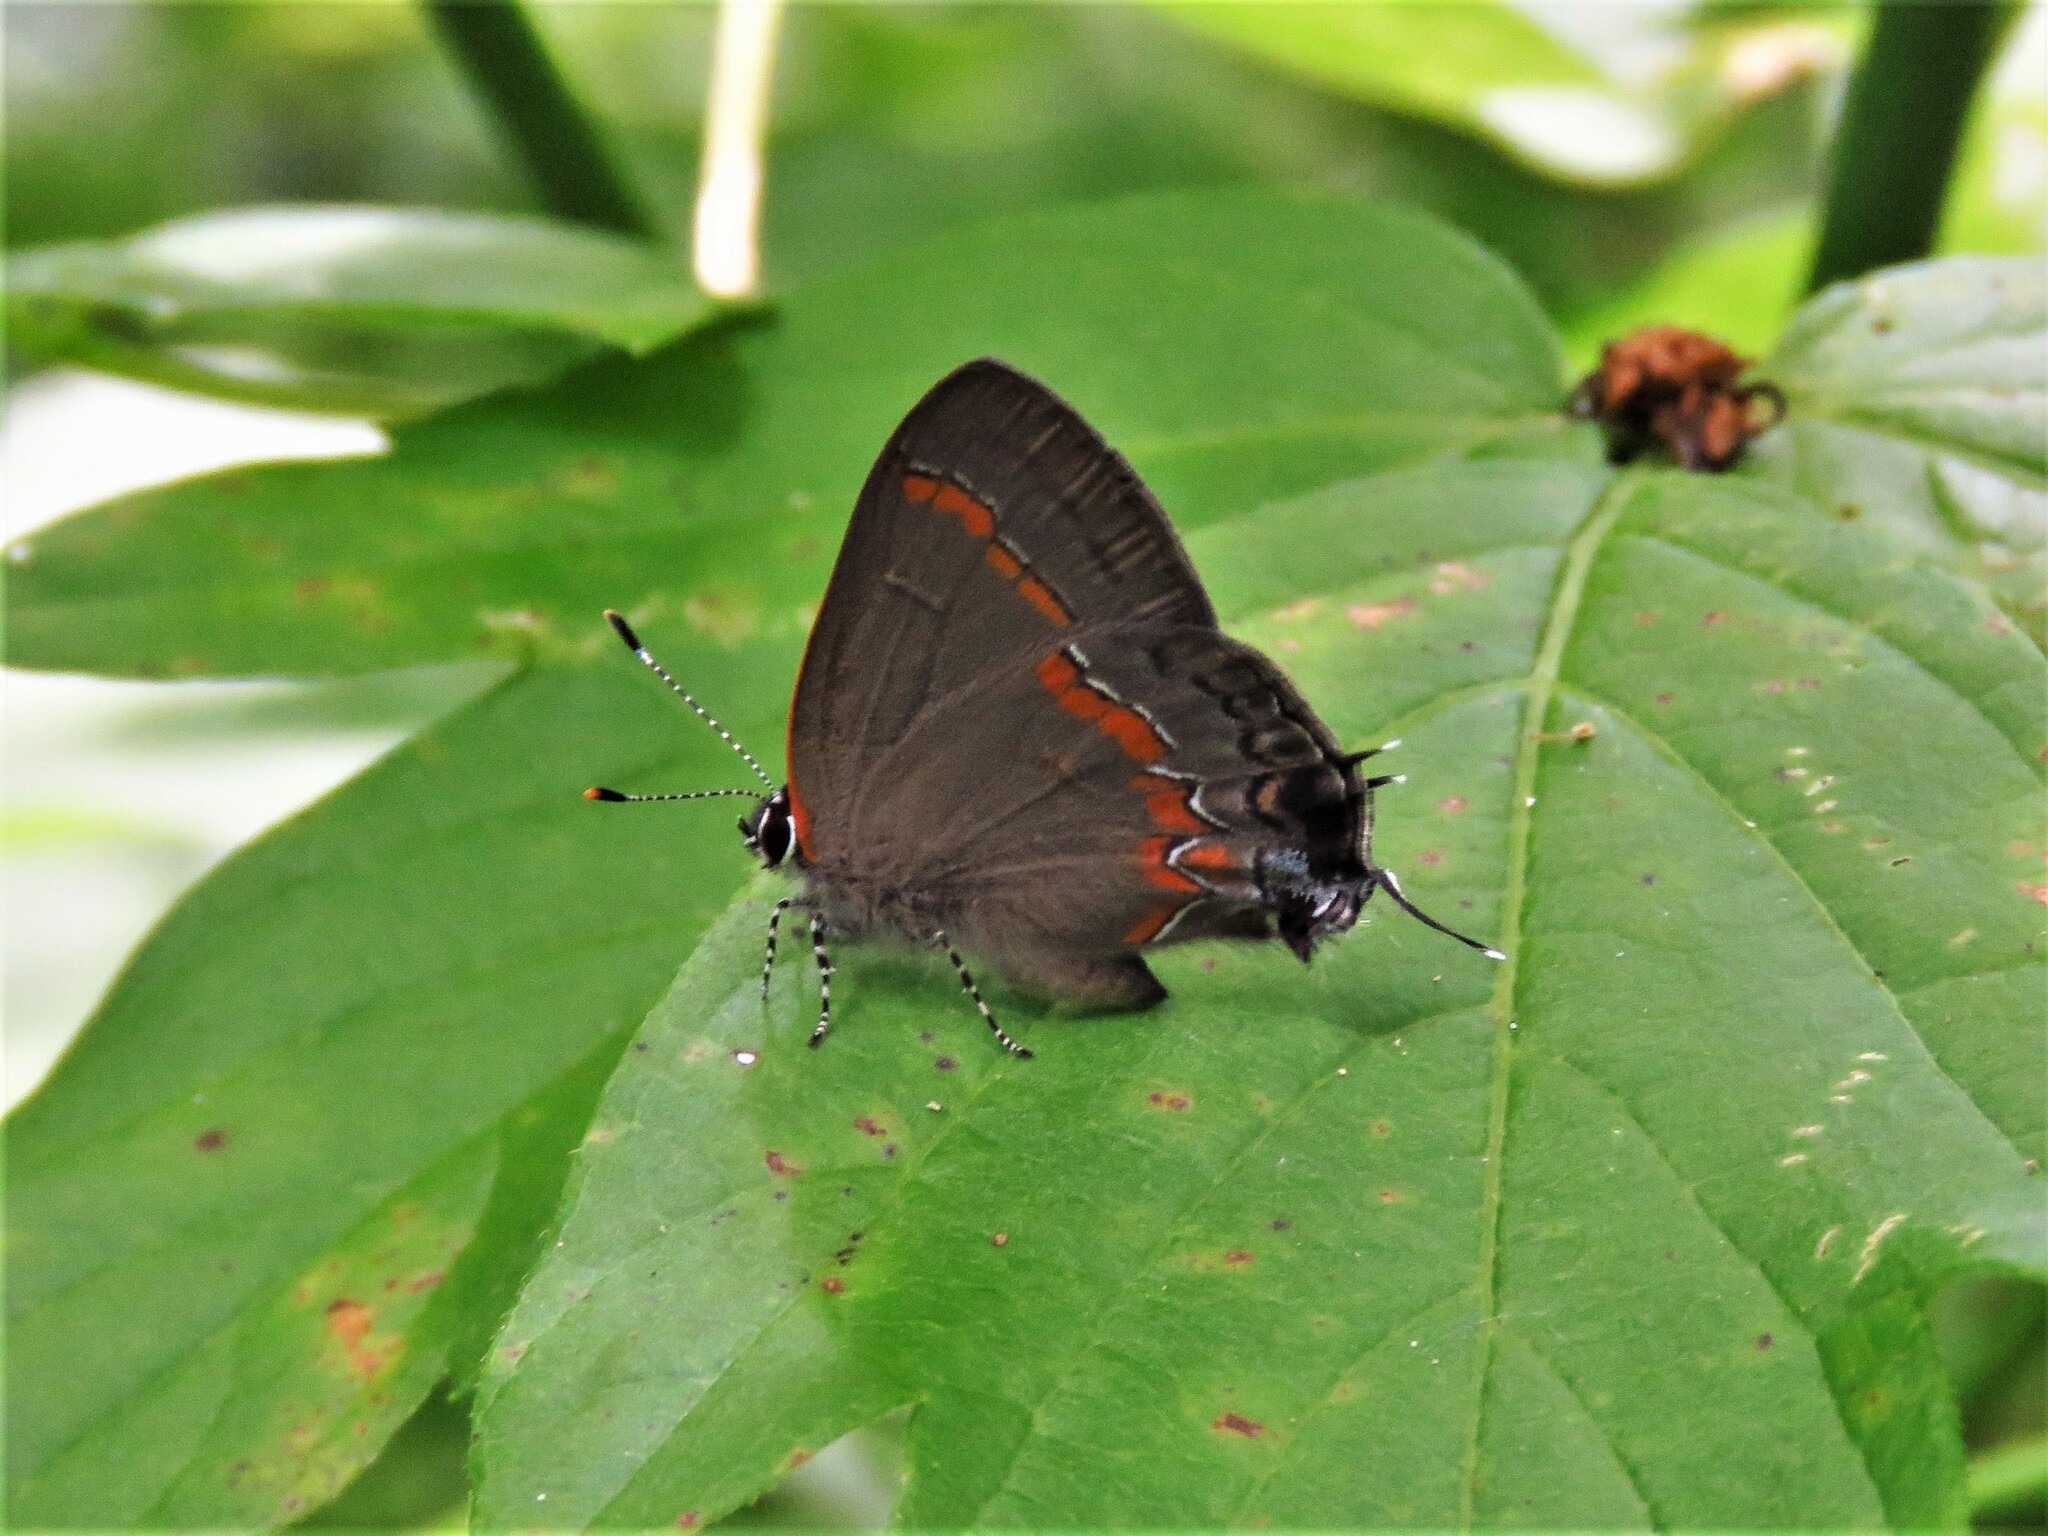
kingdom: Animalia
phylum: Arthropoda
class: Insecta
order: Lepidoptera
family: Lycaenidae
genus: Calycopis
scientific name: Calycopis cecrops
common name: Red-banded hairstreak
